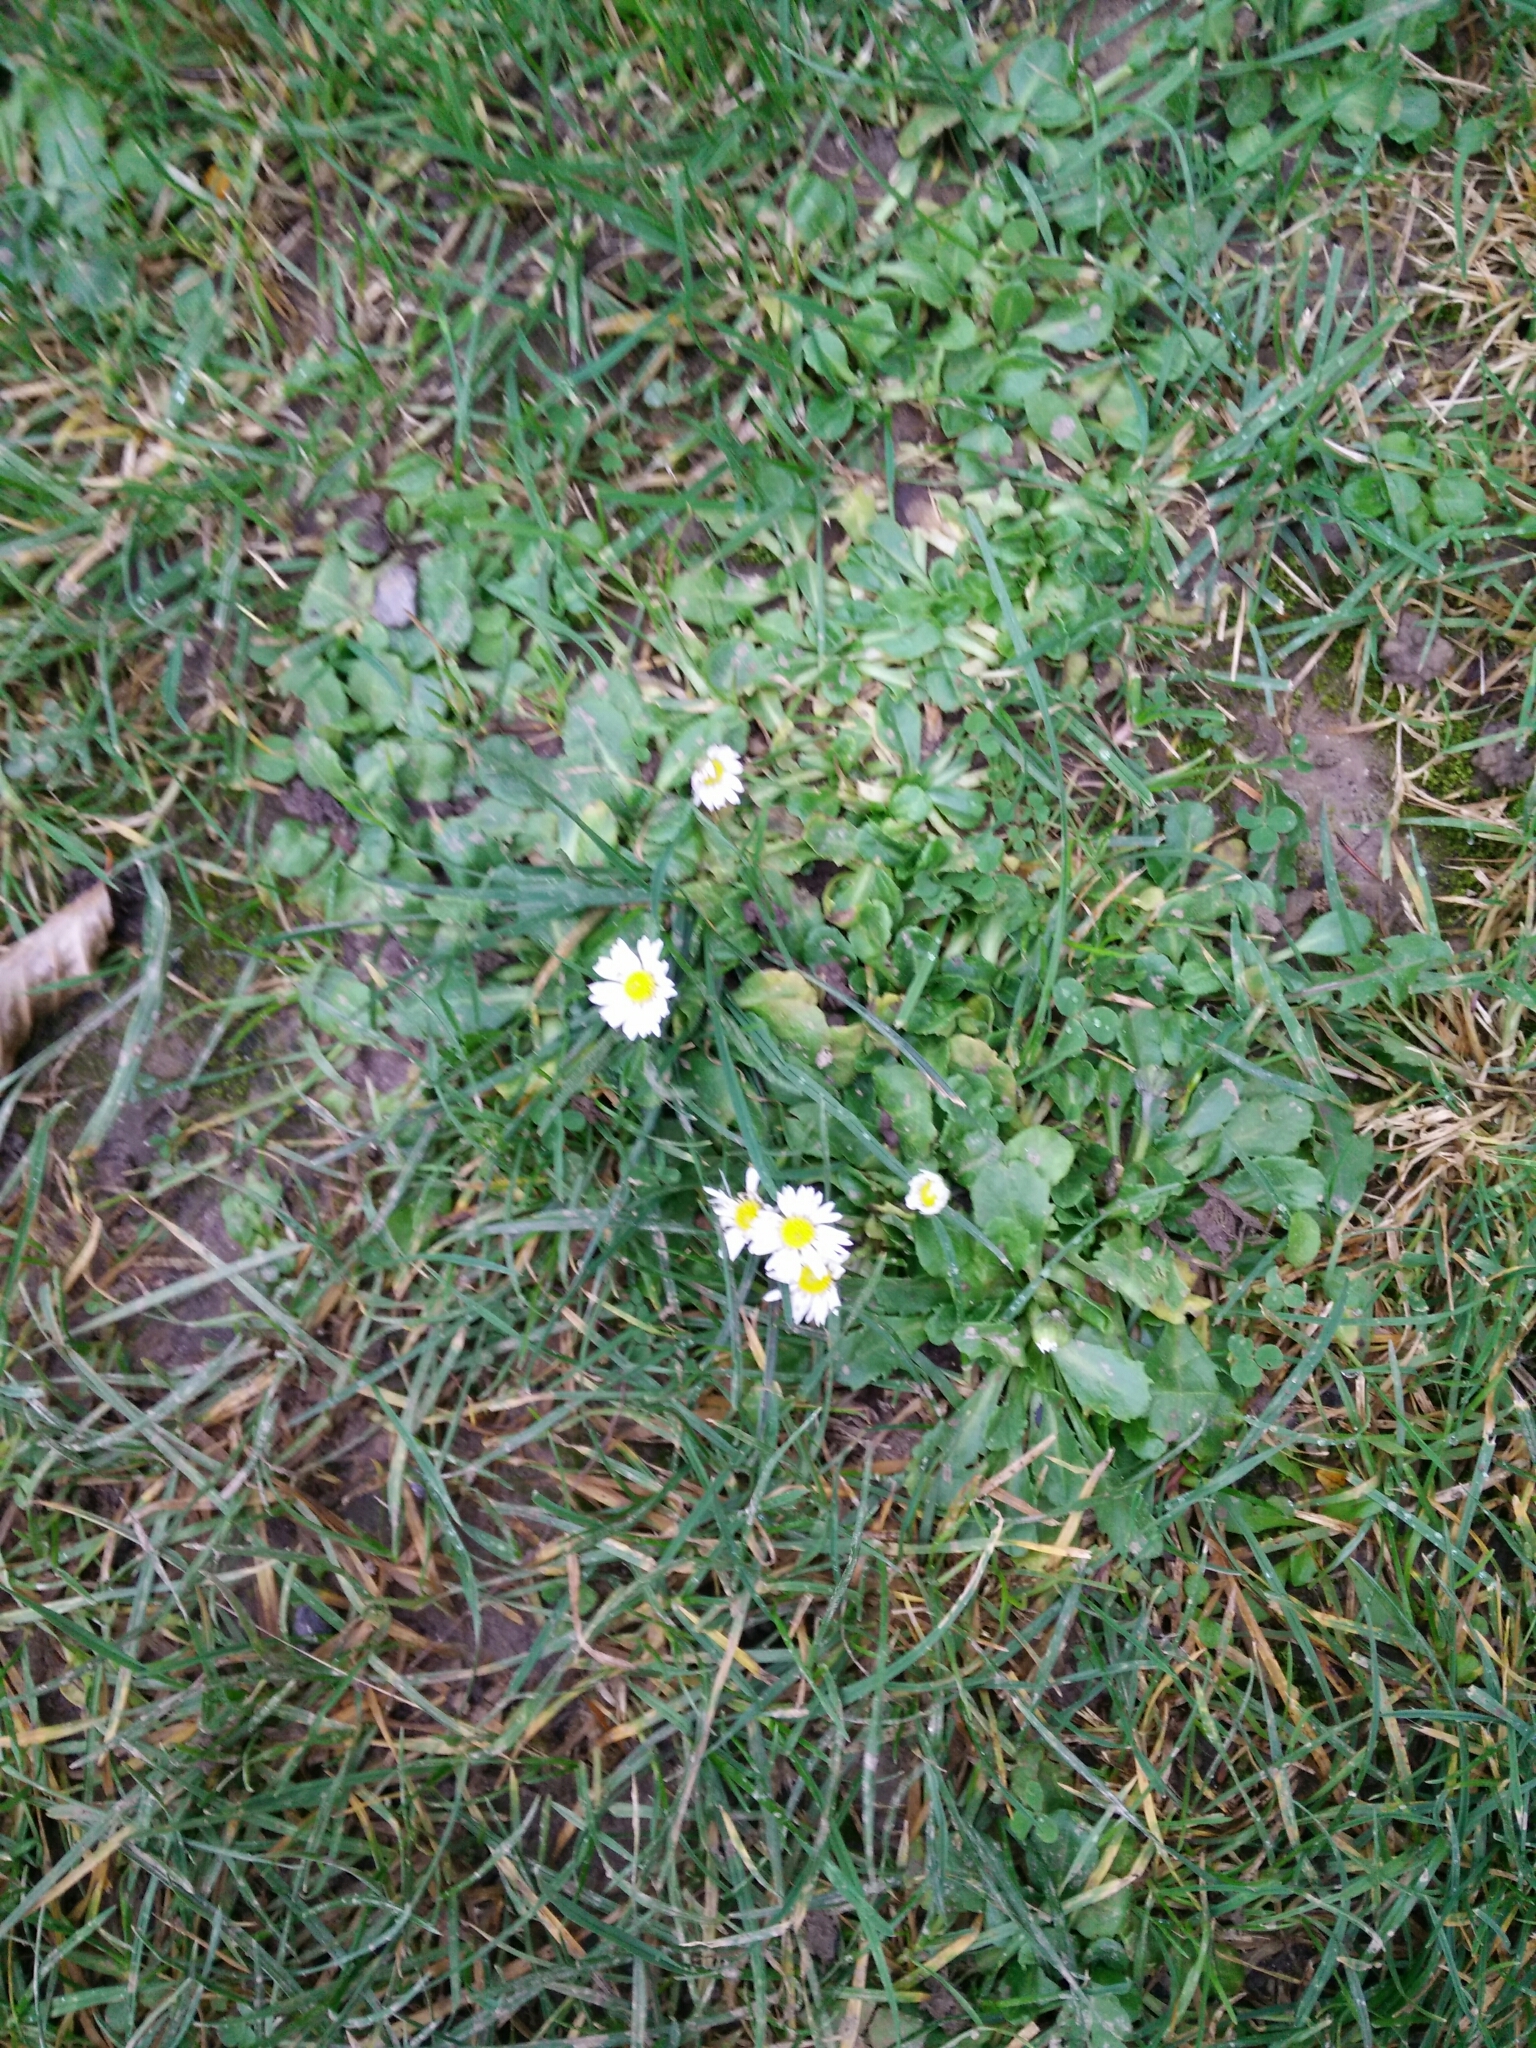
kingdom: Plantae
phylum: Tracheophyta
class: Magnoliopsida
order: Asterales
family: Asteraceae
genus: Bellis
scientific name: Bellis perennis
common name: Lawndaisy
